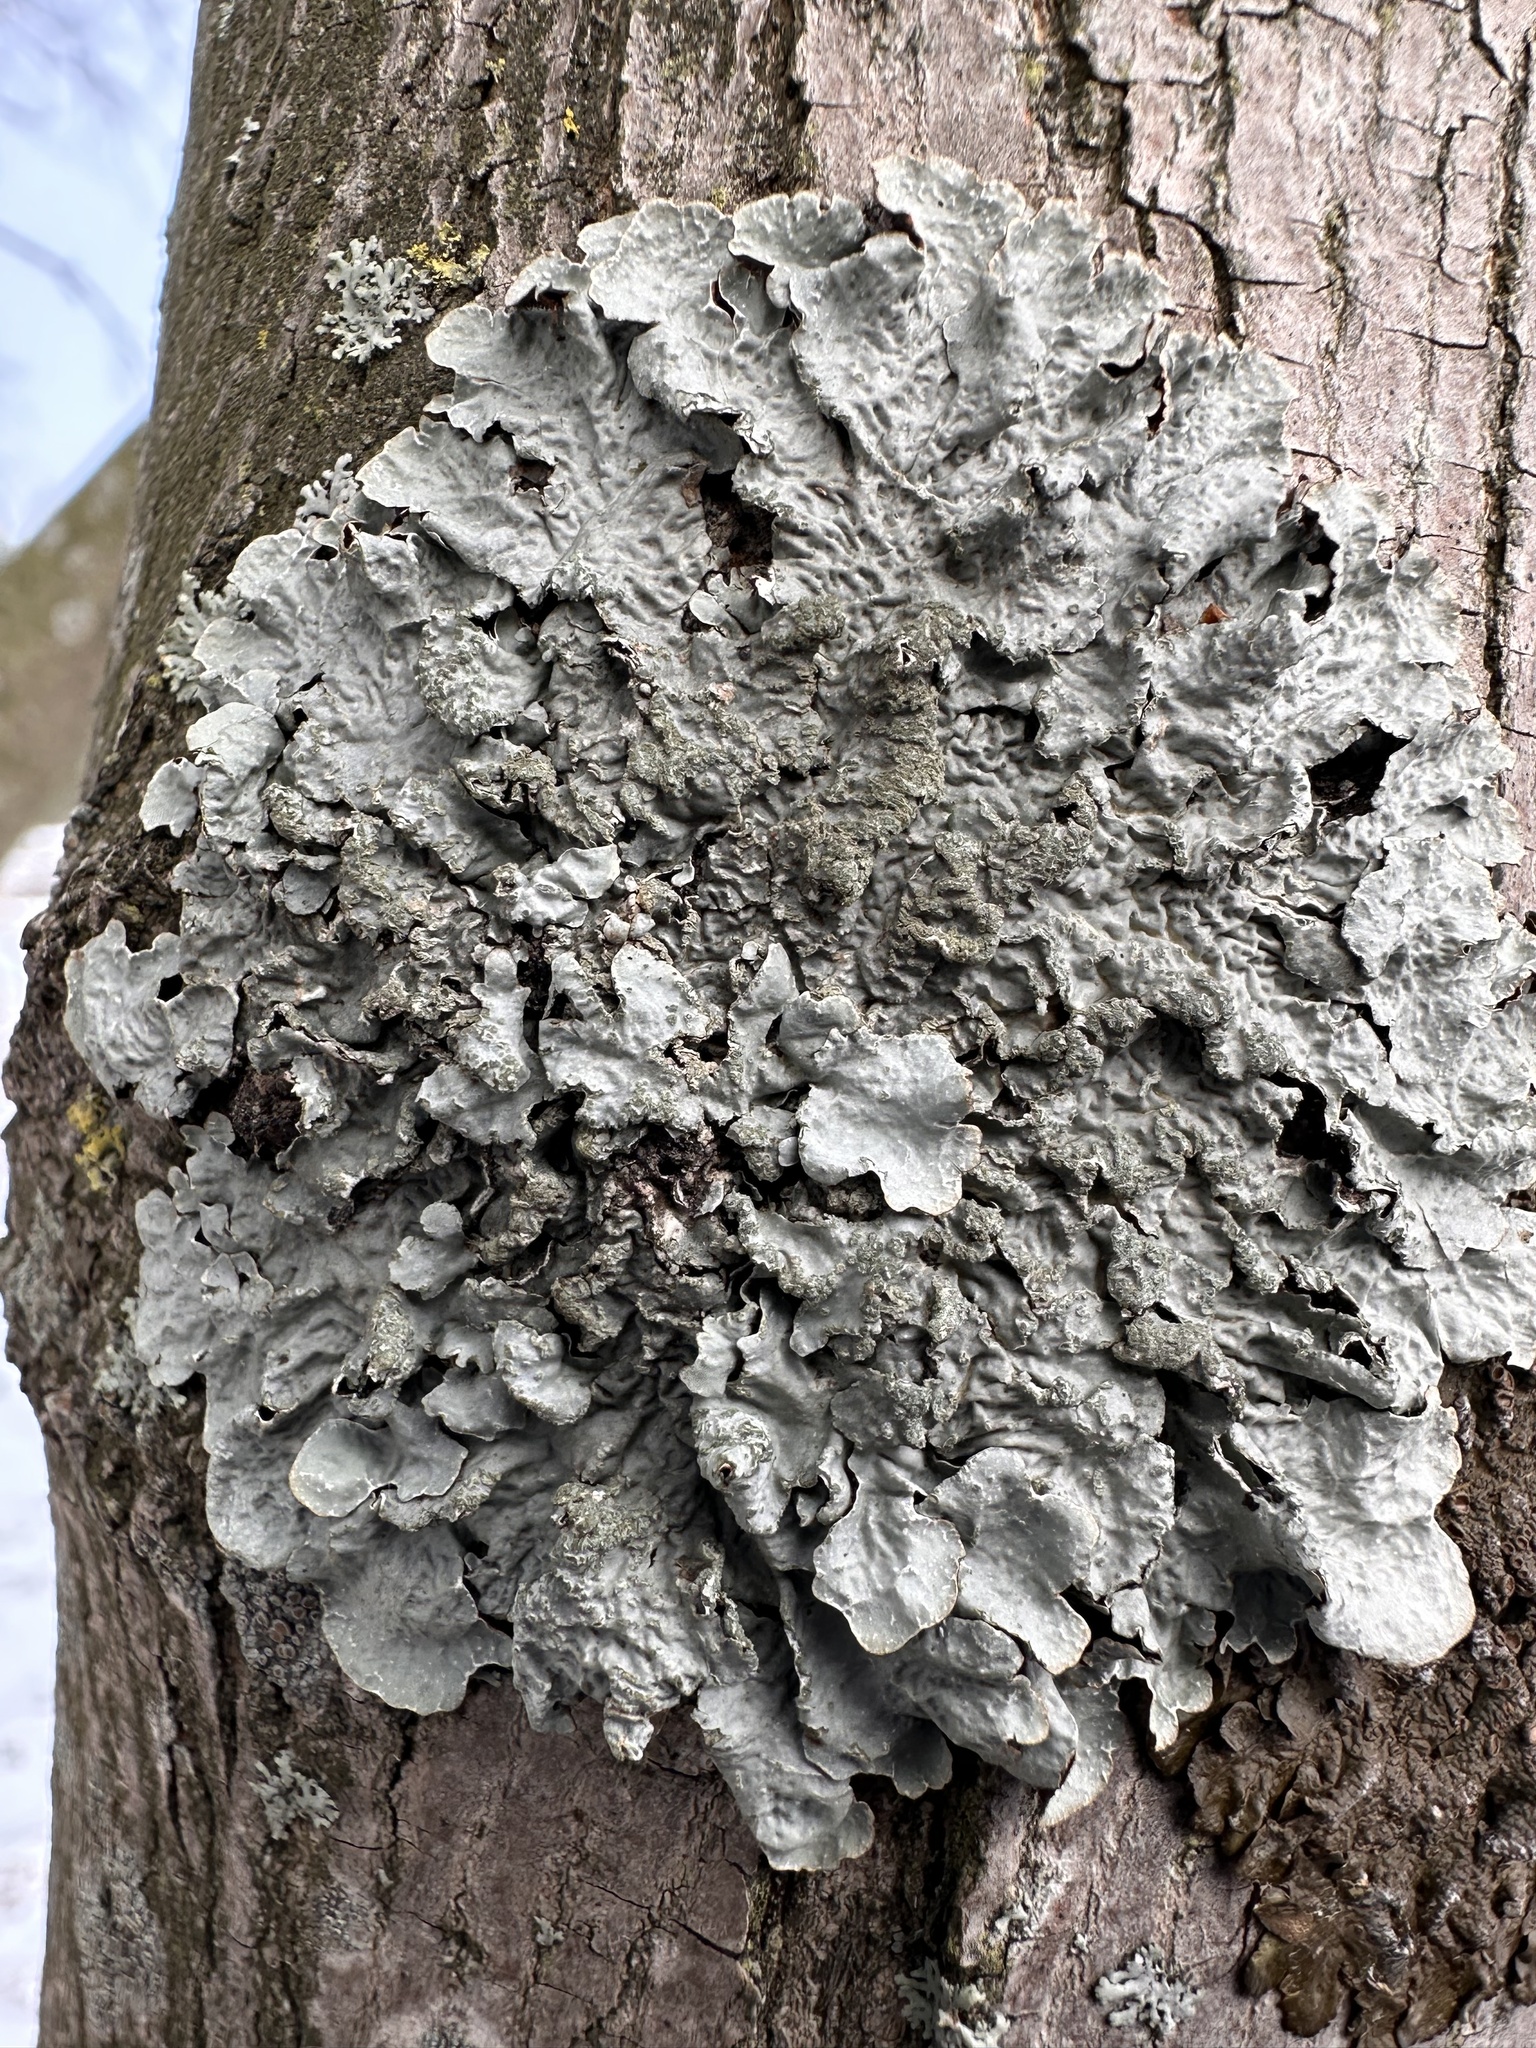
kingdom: Fungi
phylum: Ascomycota
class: Lecanoromycetes
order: Lecanorales
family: Parmeliaceae
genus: Parmelia
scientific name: Parmelia sulcata
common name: Netted shield lichen
